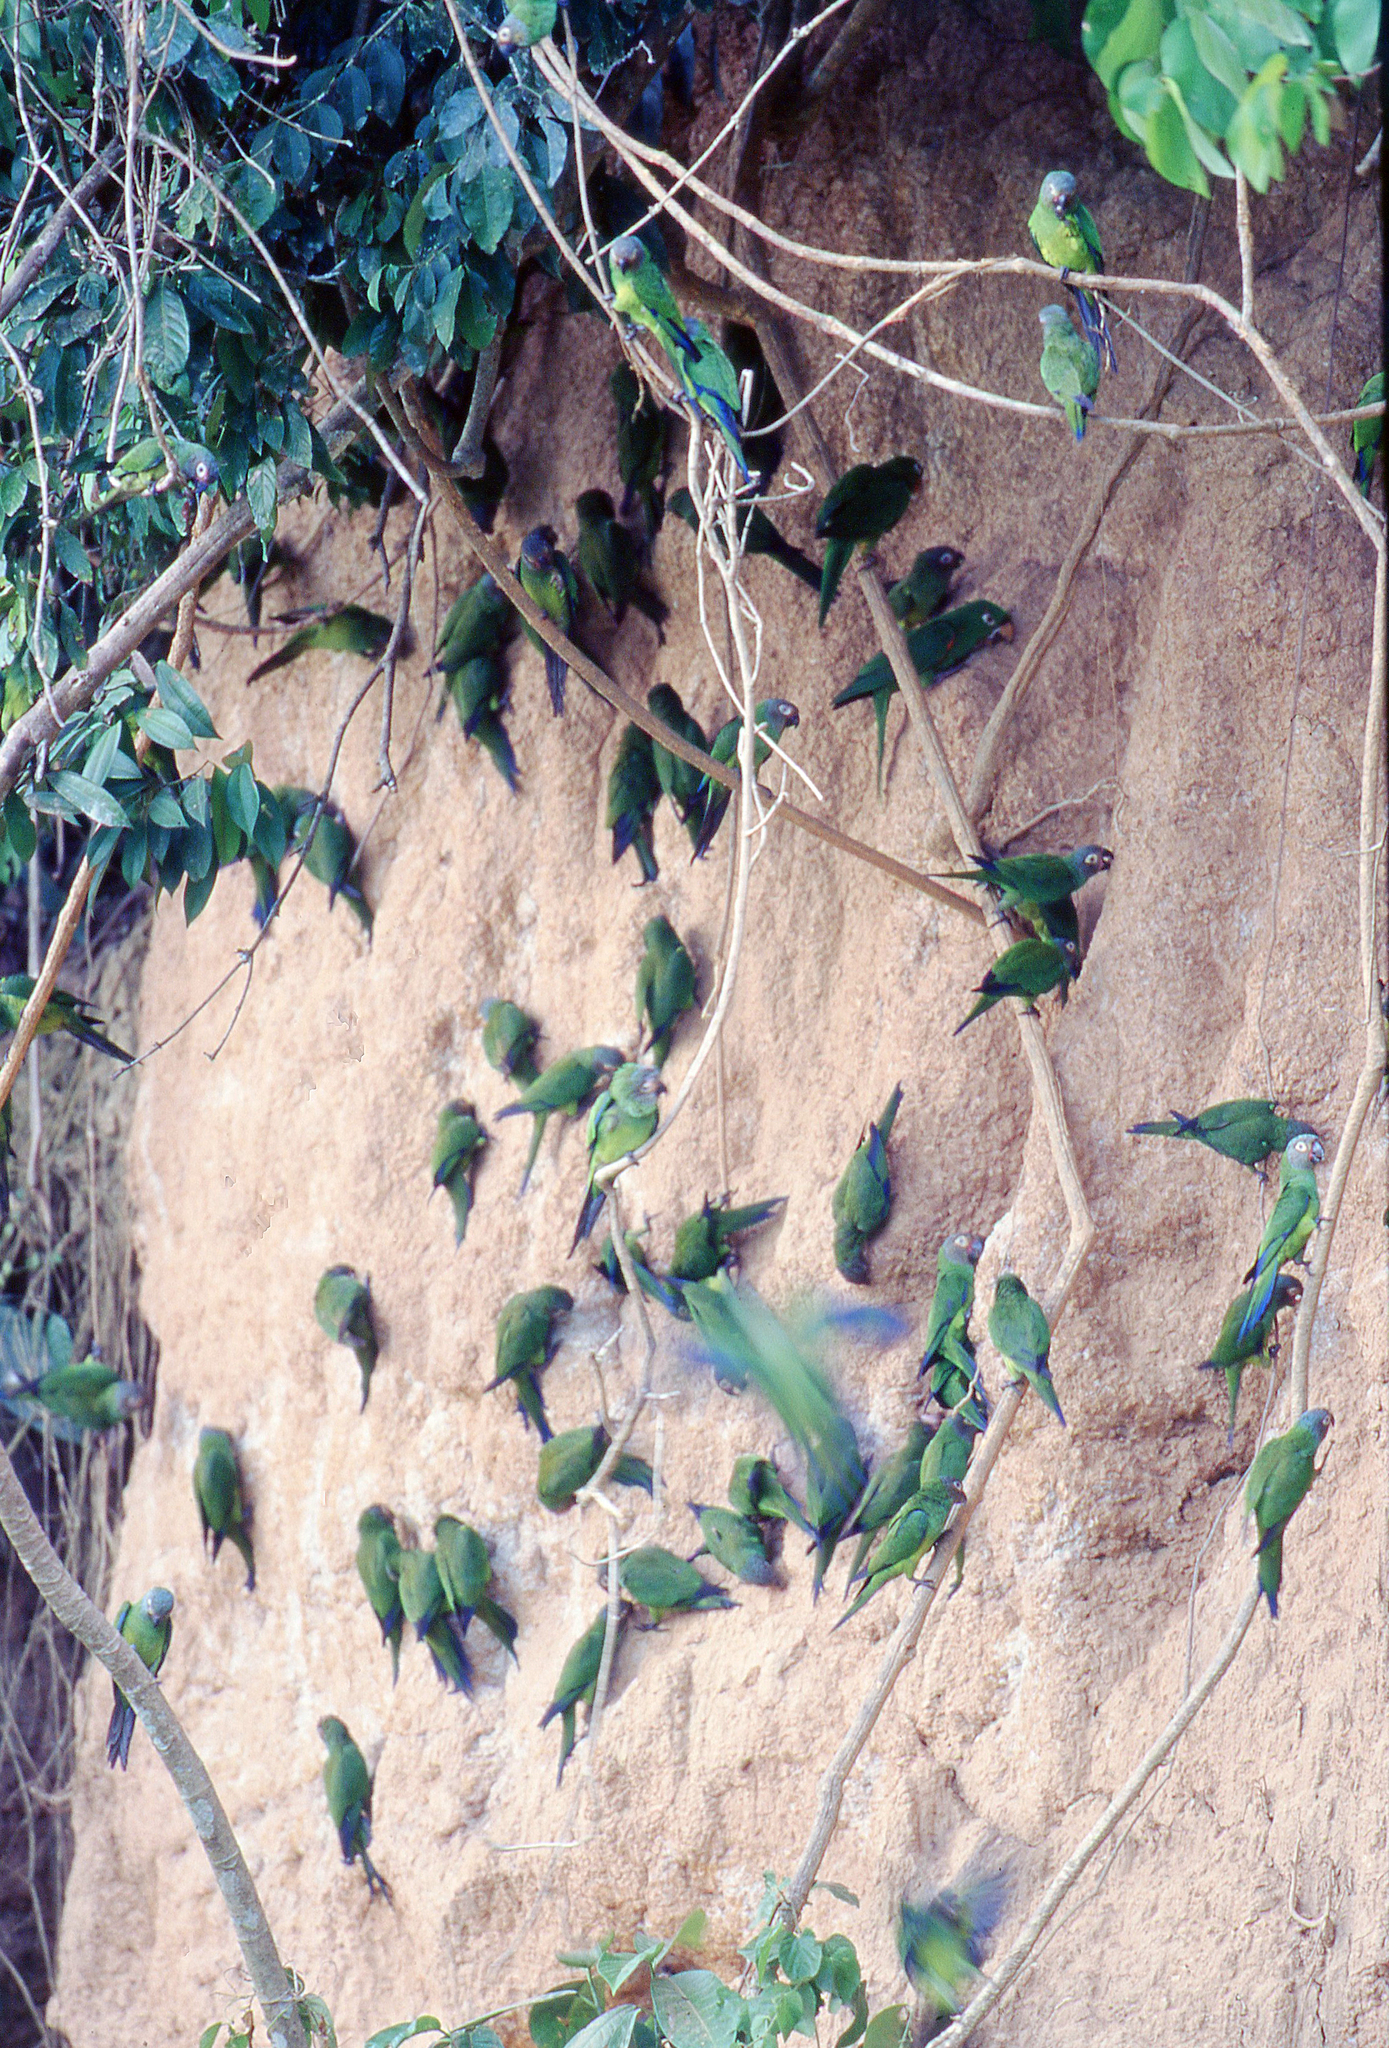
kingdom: Animalia
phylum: Chordata
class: Aves
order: Psittaciformes
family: Psittacidae
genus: Aratinga
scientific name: Aratinga weddellii
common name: Dusky-headed parakeet
